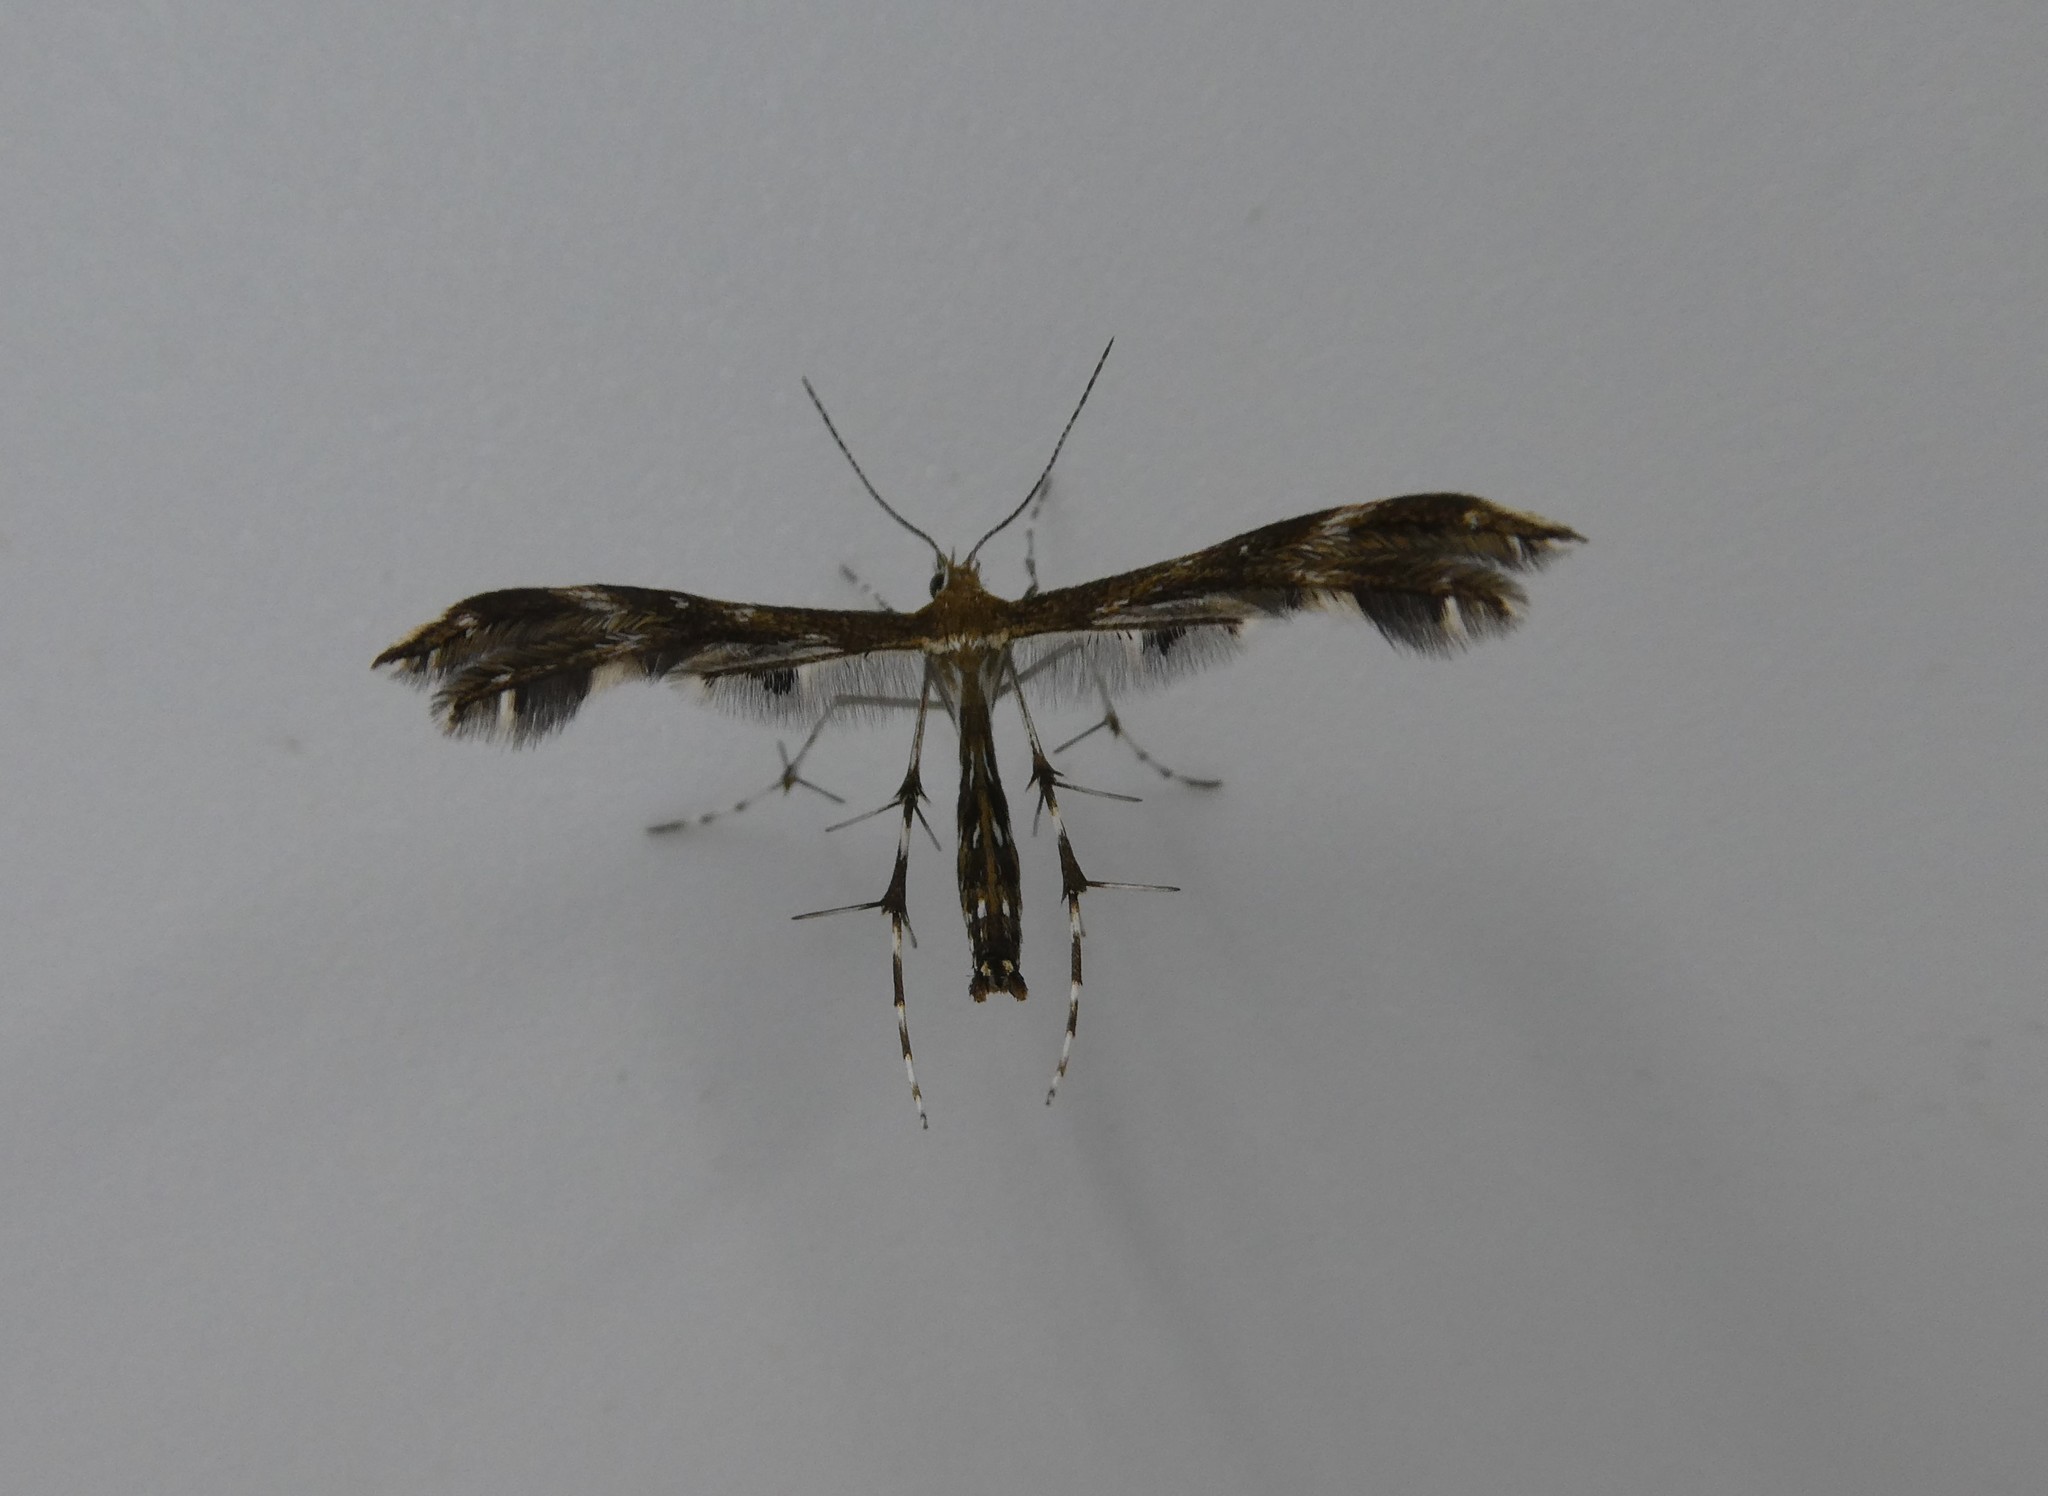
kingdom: Animalia
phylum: Arthropoda
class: Insecta
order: Lepidoptera
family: Pterophoridae
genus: Dejongia
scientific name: Dejongia lobidactylus
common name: Lobed plume moth
